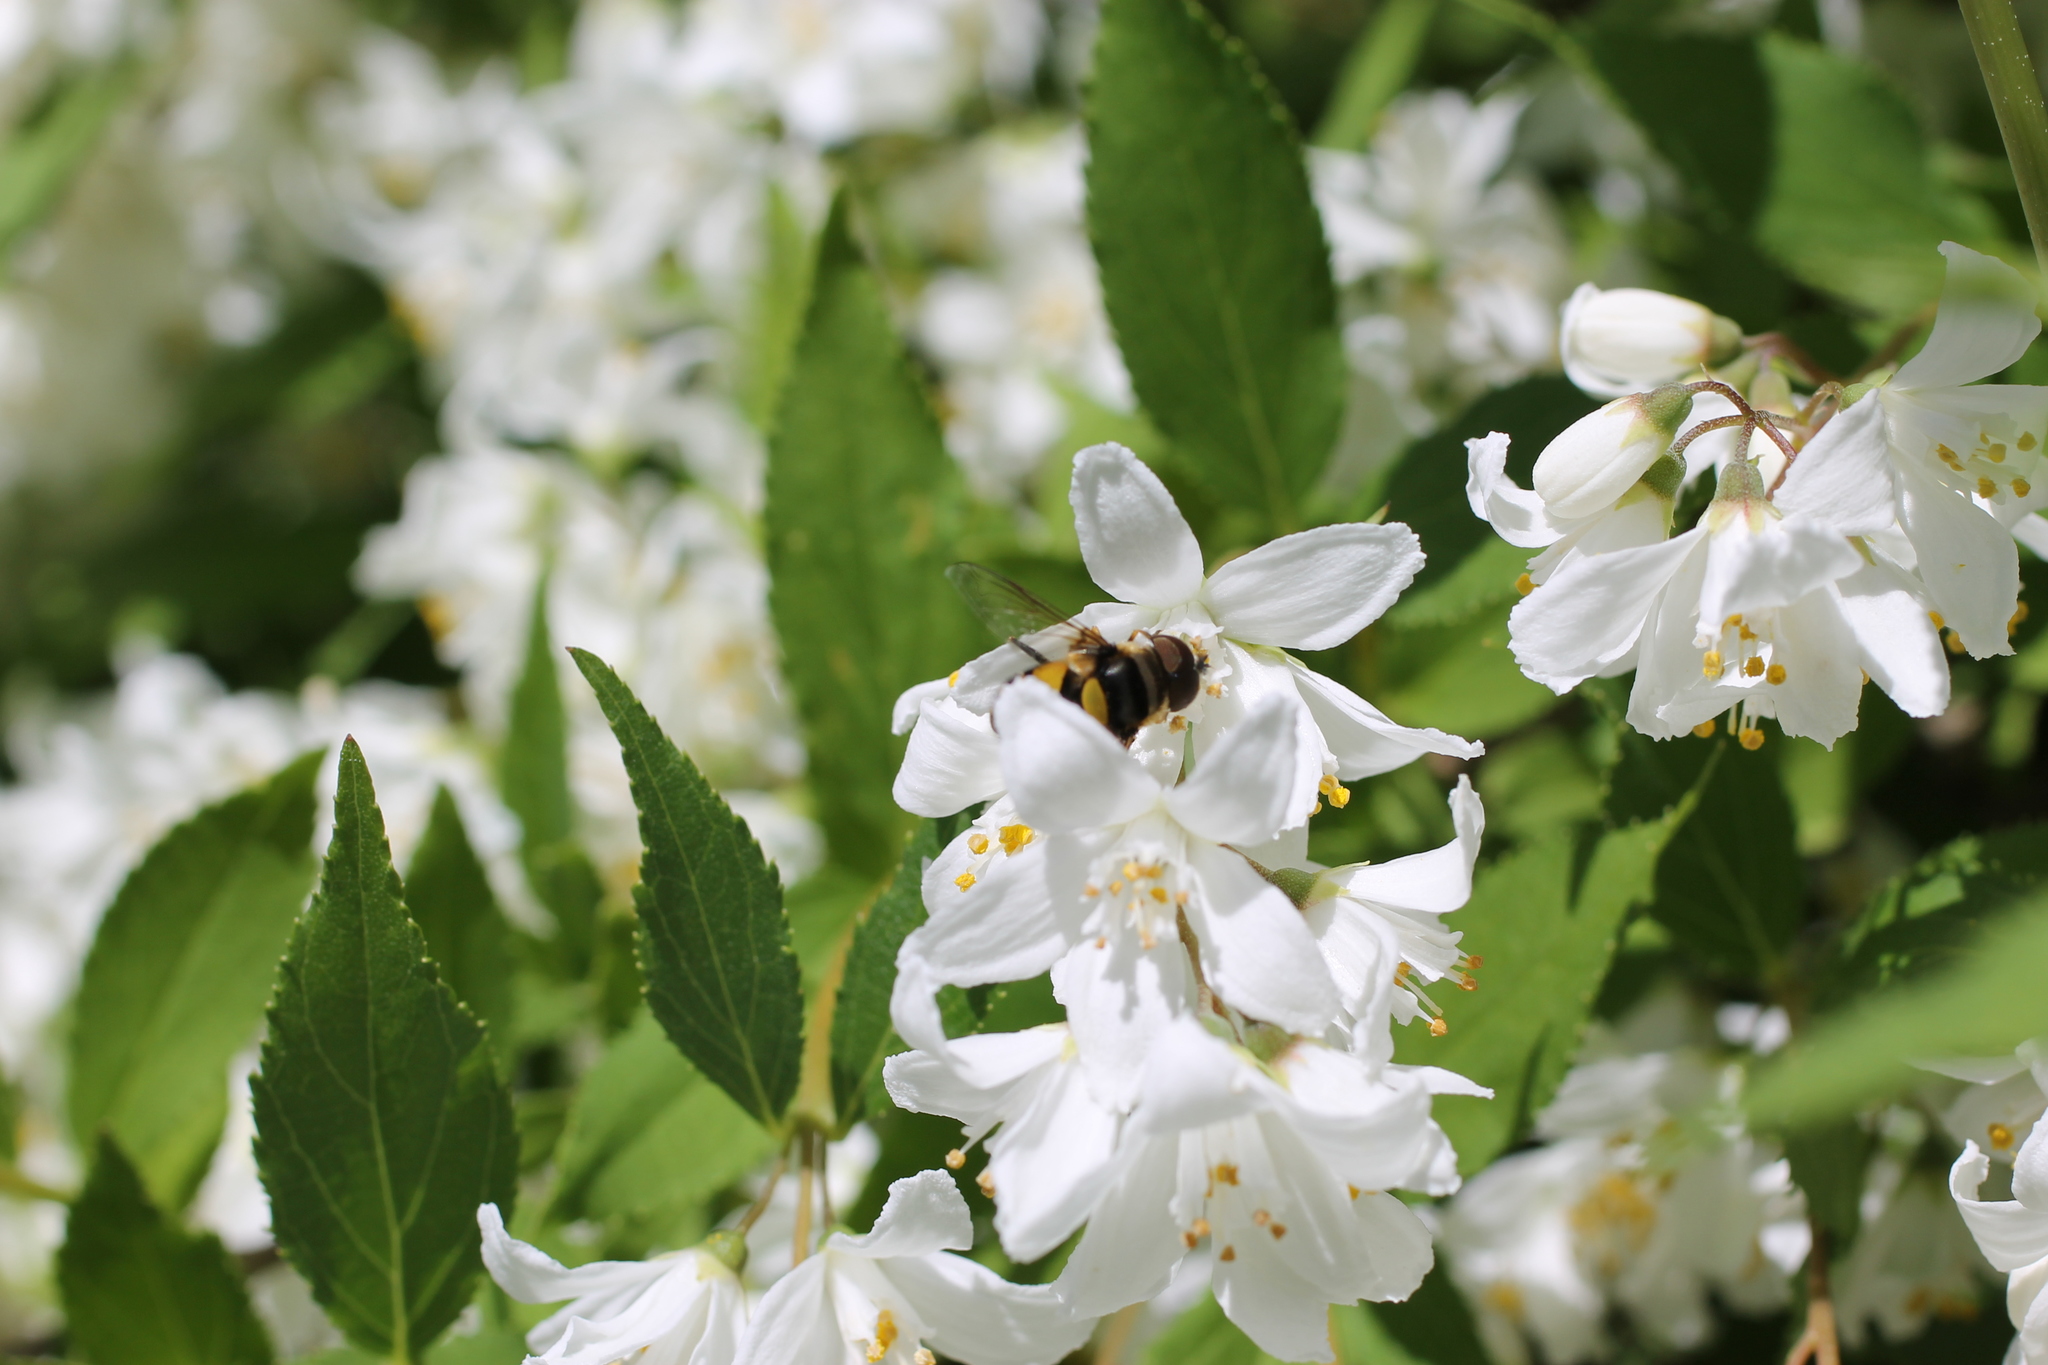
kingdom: Animalia
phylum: Arthropoda
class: Insecta
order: Diptera
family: Syrphidae
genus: Eristalis
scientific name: Eristalis transversa
